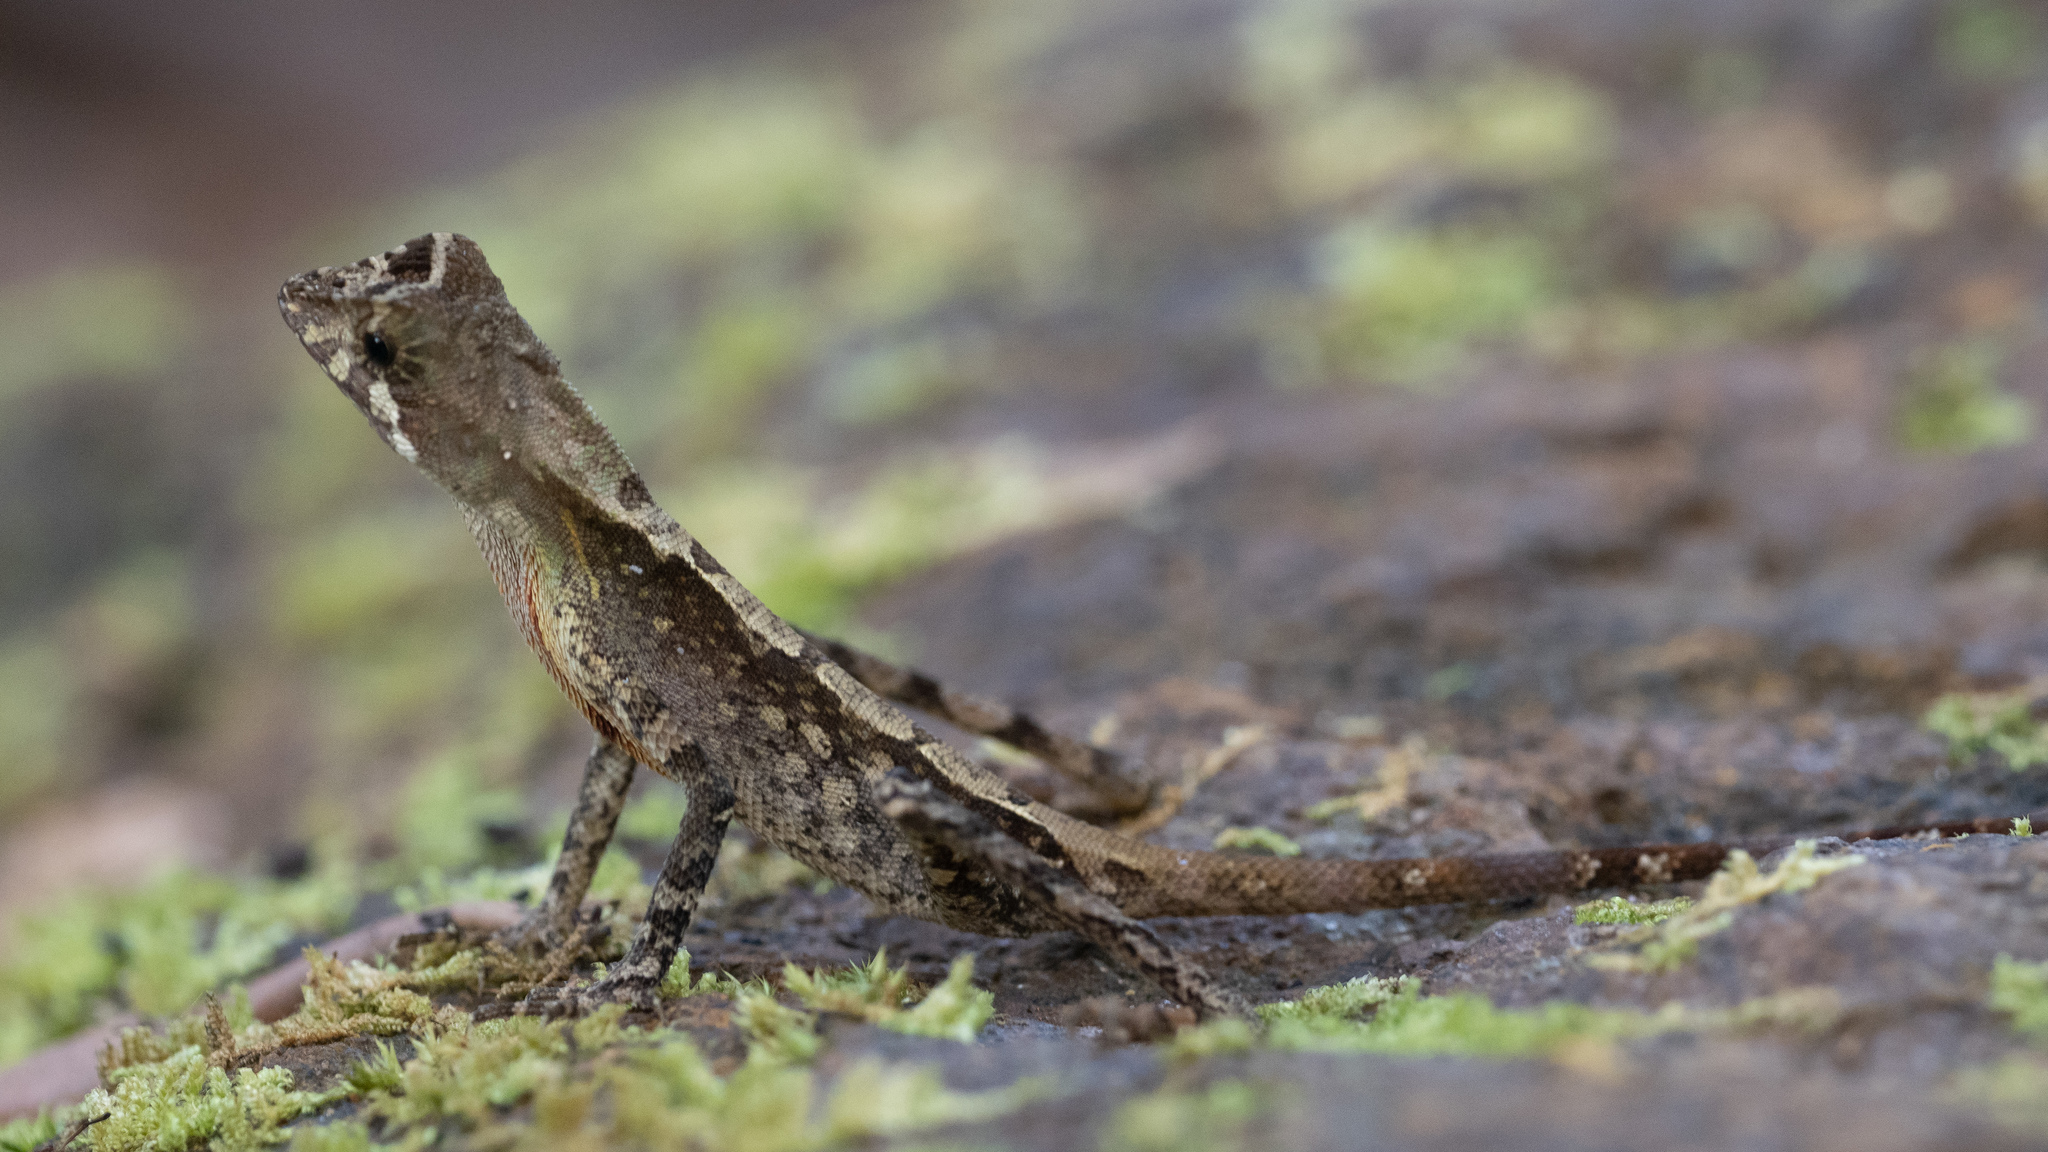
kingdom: Animalia
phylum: Chordata
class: Squamata
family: Agamidae
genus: Otocryptis
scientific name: Otocryptis wiegmanni
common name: Wiegmann's agama
